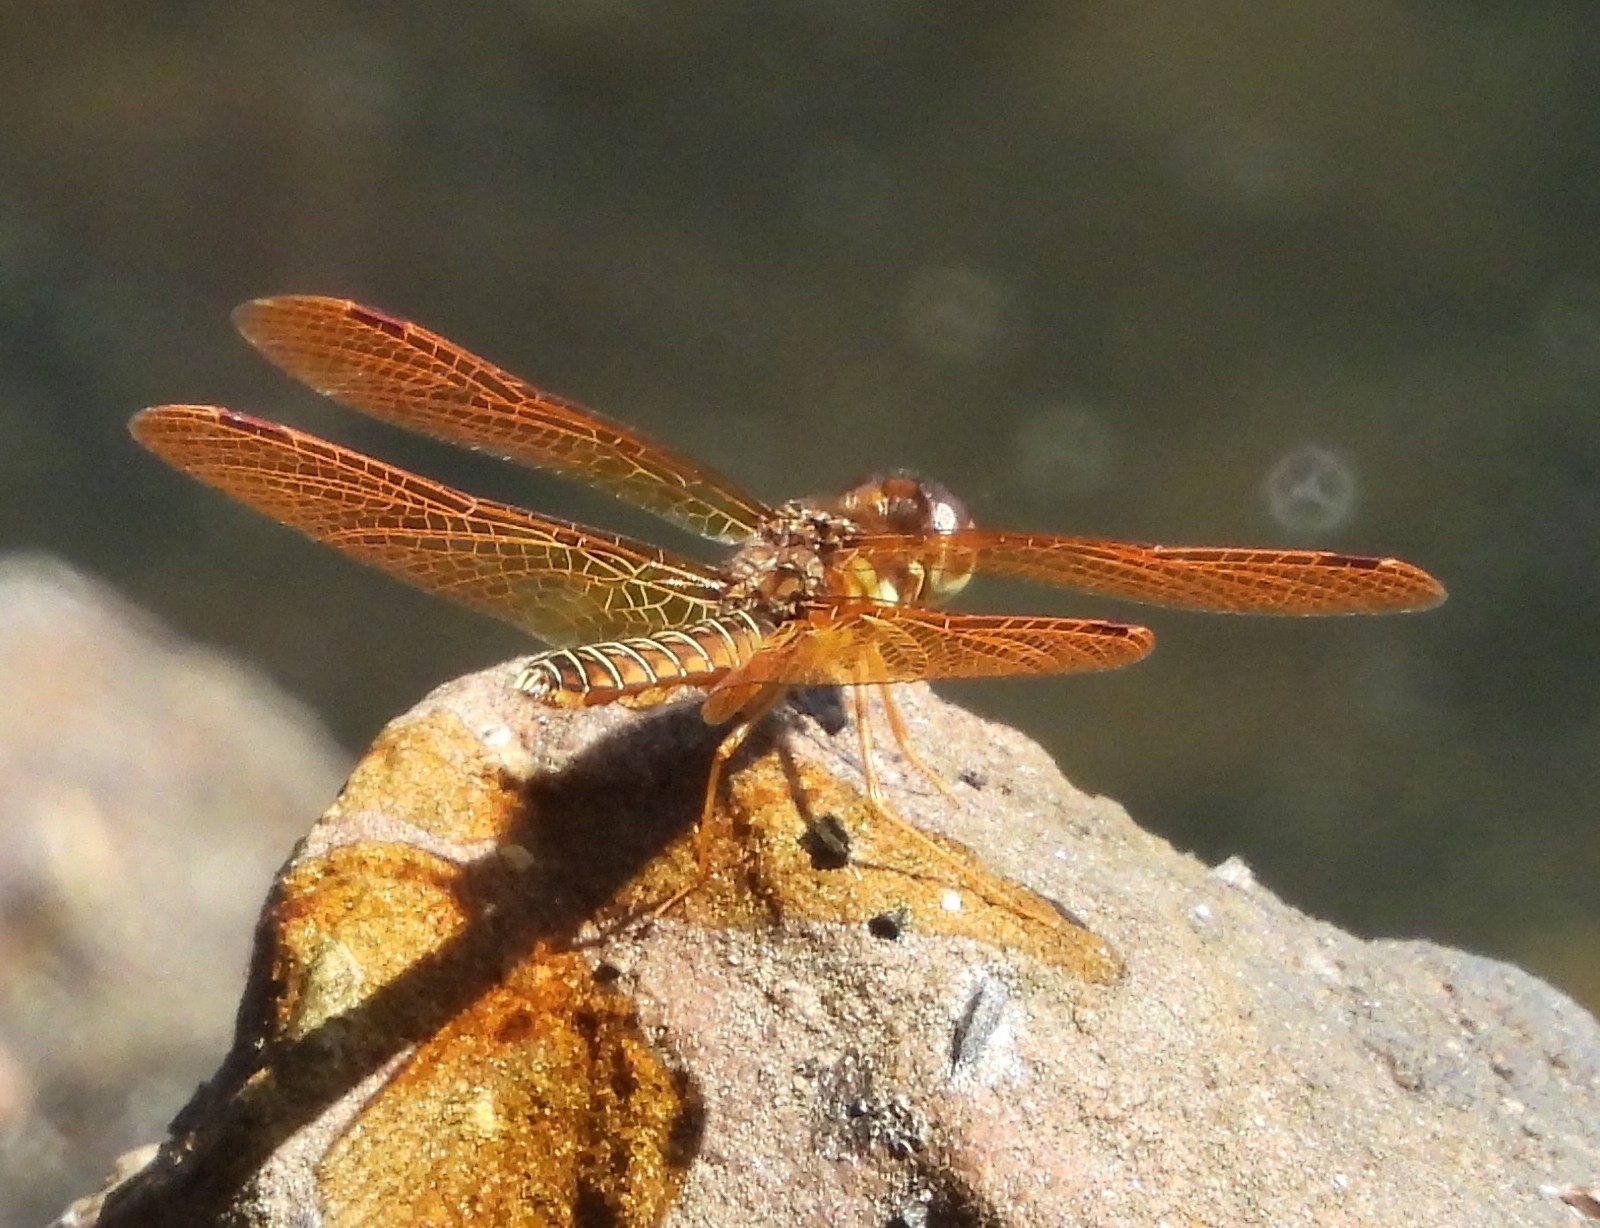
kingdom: Animalia
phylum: Arthropoda
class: Insecta
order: Odonata
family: Libellulidae
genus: Perithemis
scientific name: Perithemis tenera
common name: Eastern amberwing
